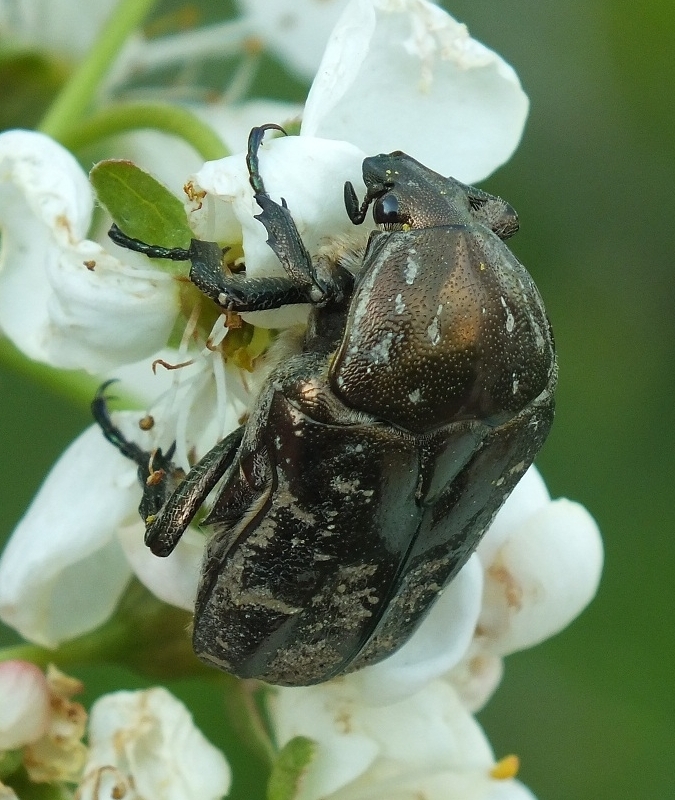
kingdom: Animalia
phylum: Arthropoda
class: Insecta
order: Coleoptera
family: Scarabaeidae
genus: Protaetia
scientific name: Protaetia cuprea
